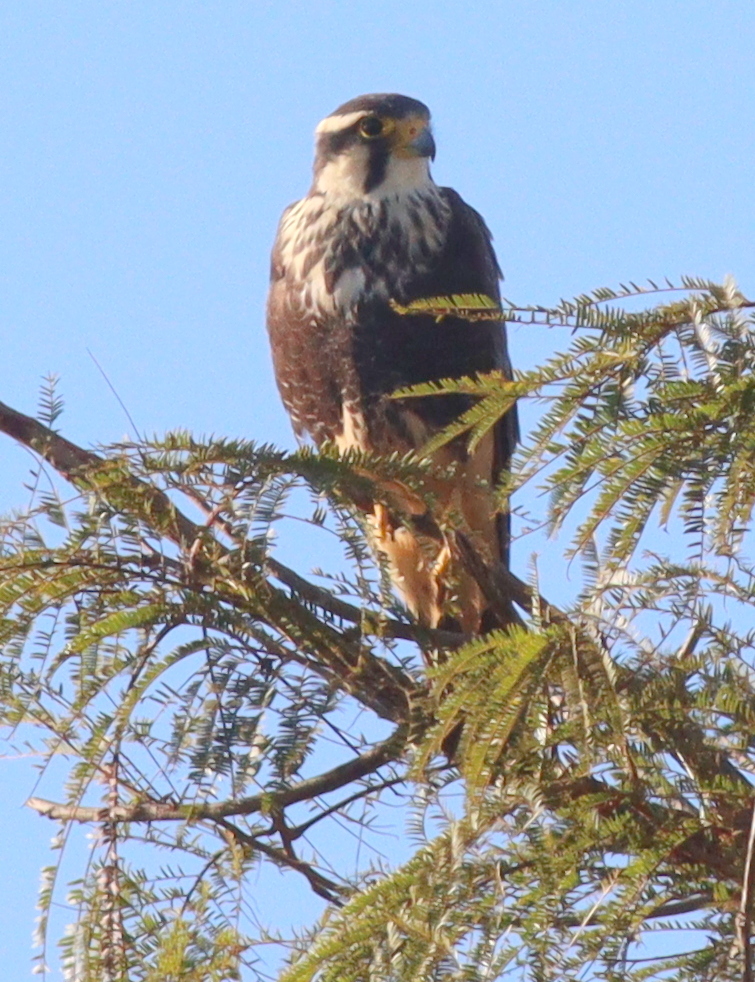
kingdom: Animalia
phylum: Chordata
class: Aves
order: Falconiformes
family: Falconidae
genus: Falco
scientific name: Falco femoralis
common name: Aplomado falcon
